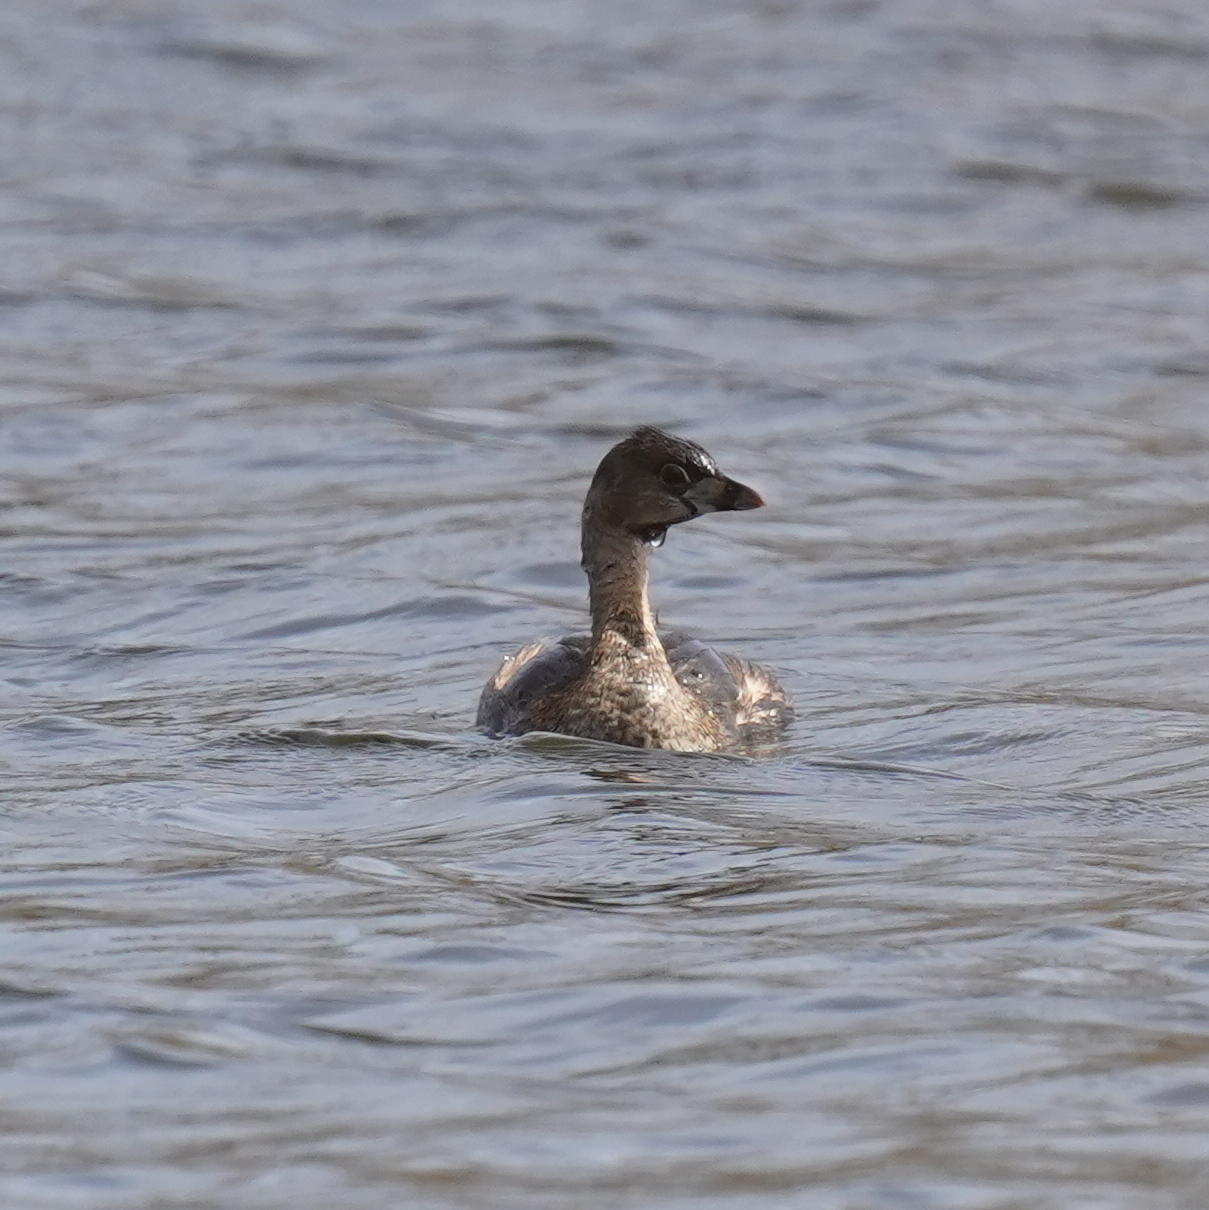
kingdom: Animalia
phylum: Chordata
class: Aves
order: Podicipediformes
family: Podicipedidae
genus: Podilymbus
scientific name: Podilymbus podiceps
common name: Pied-billed grebe
